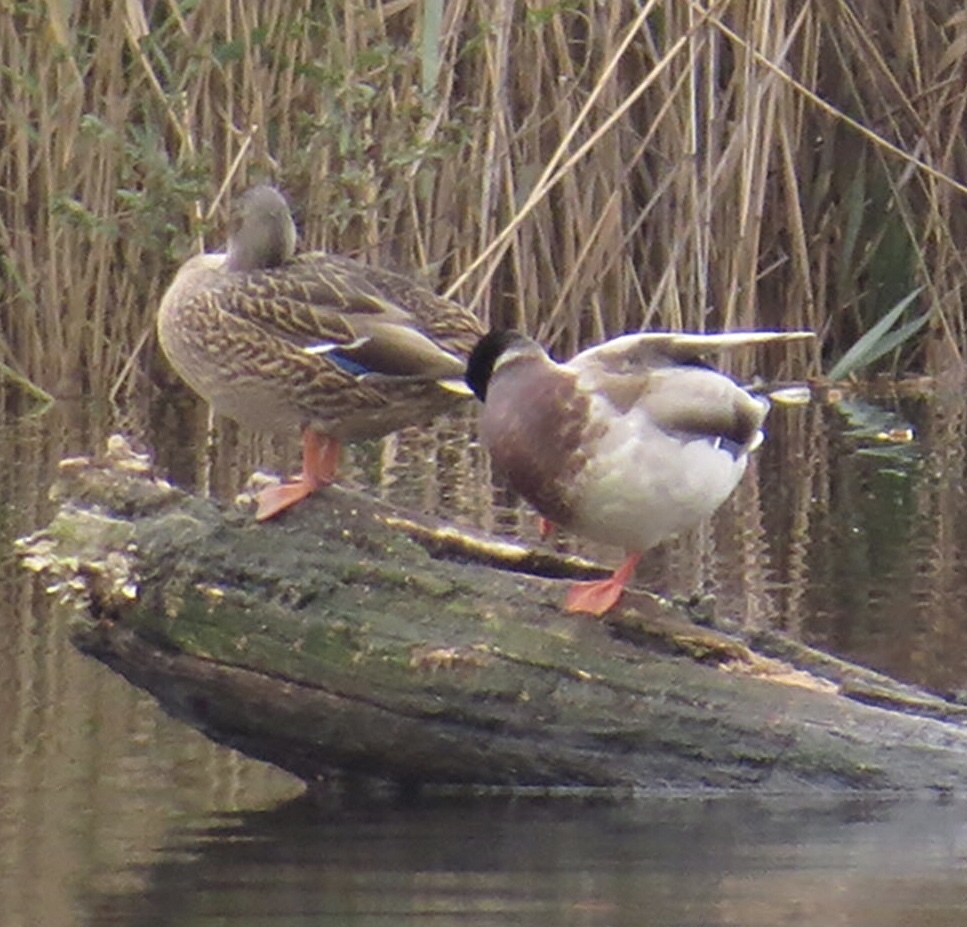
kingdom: Animalia
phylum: Chordata
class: Aves
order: Anseriformes
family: Anatidae
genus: Anas
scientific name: Anas platyrhynchos
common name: Mallard
